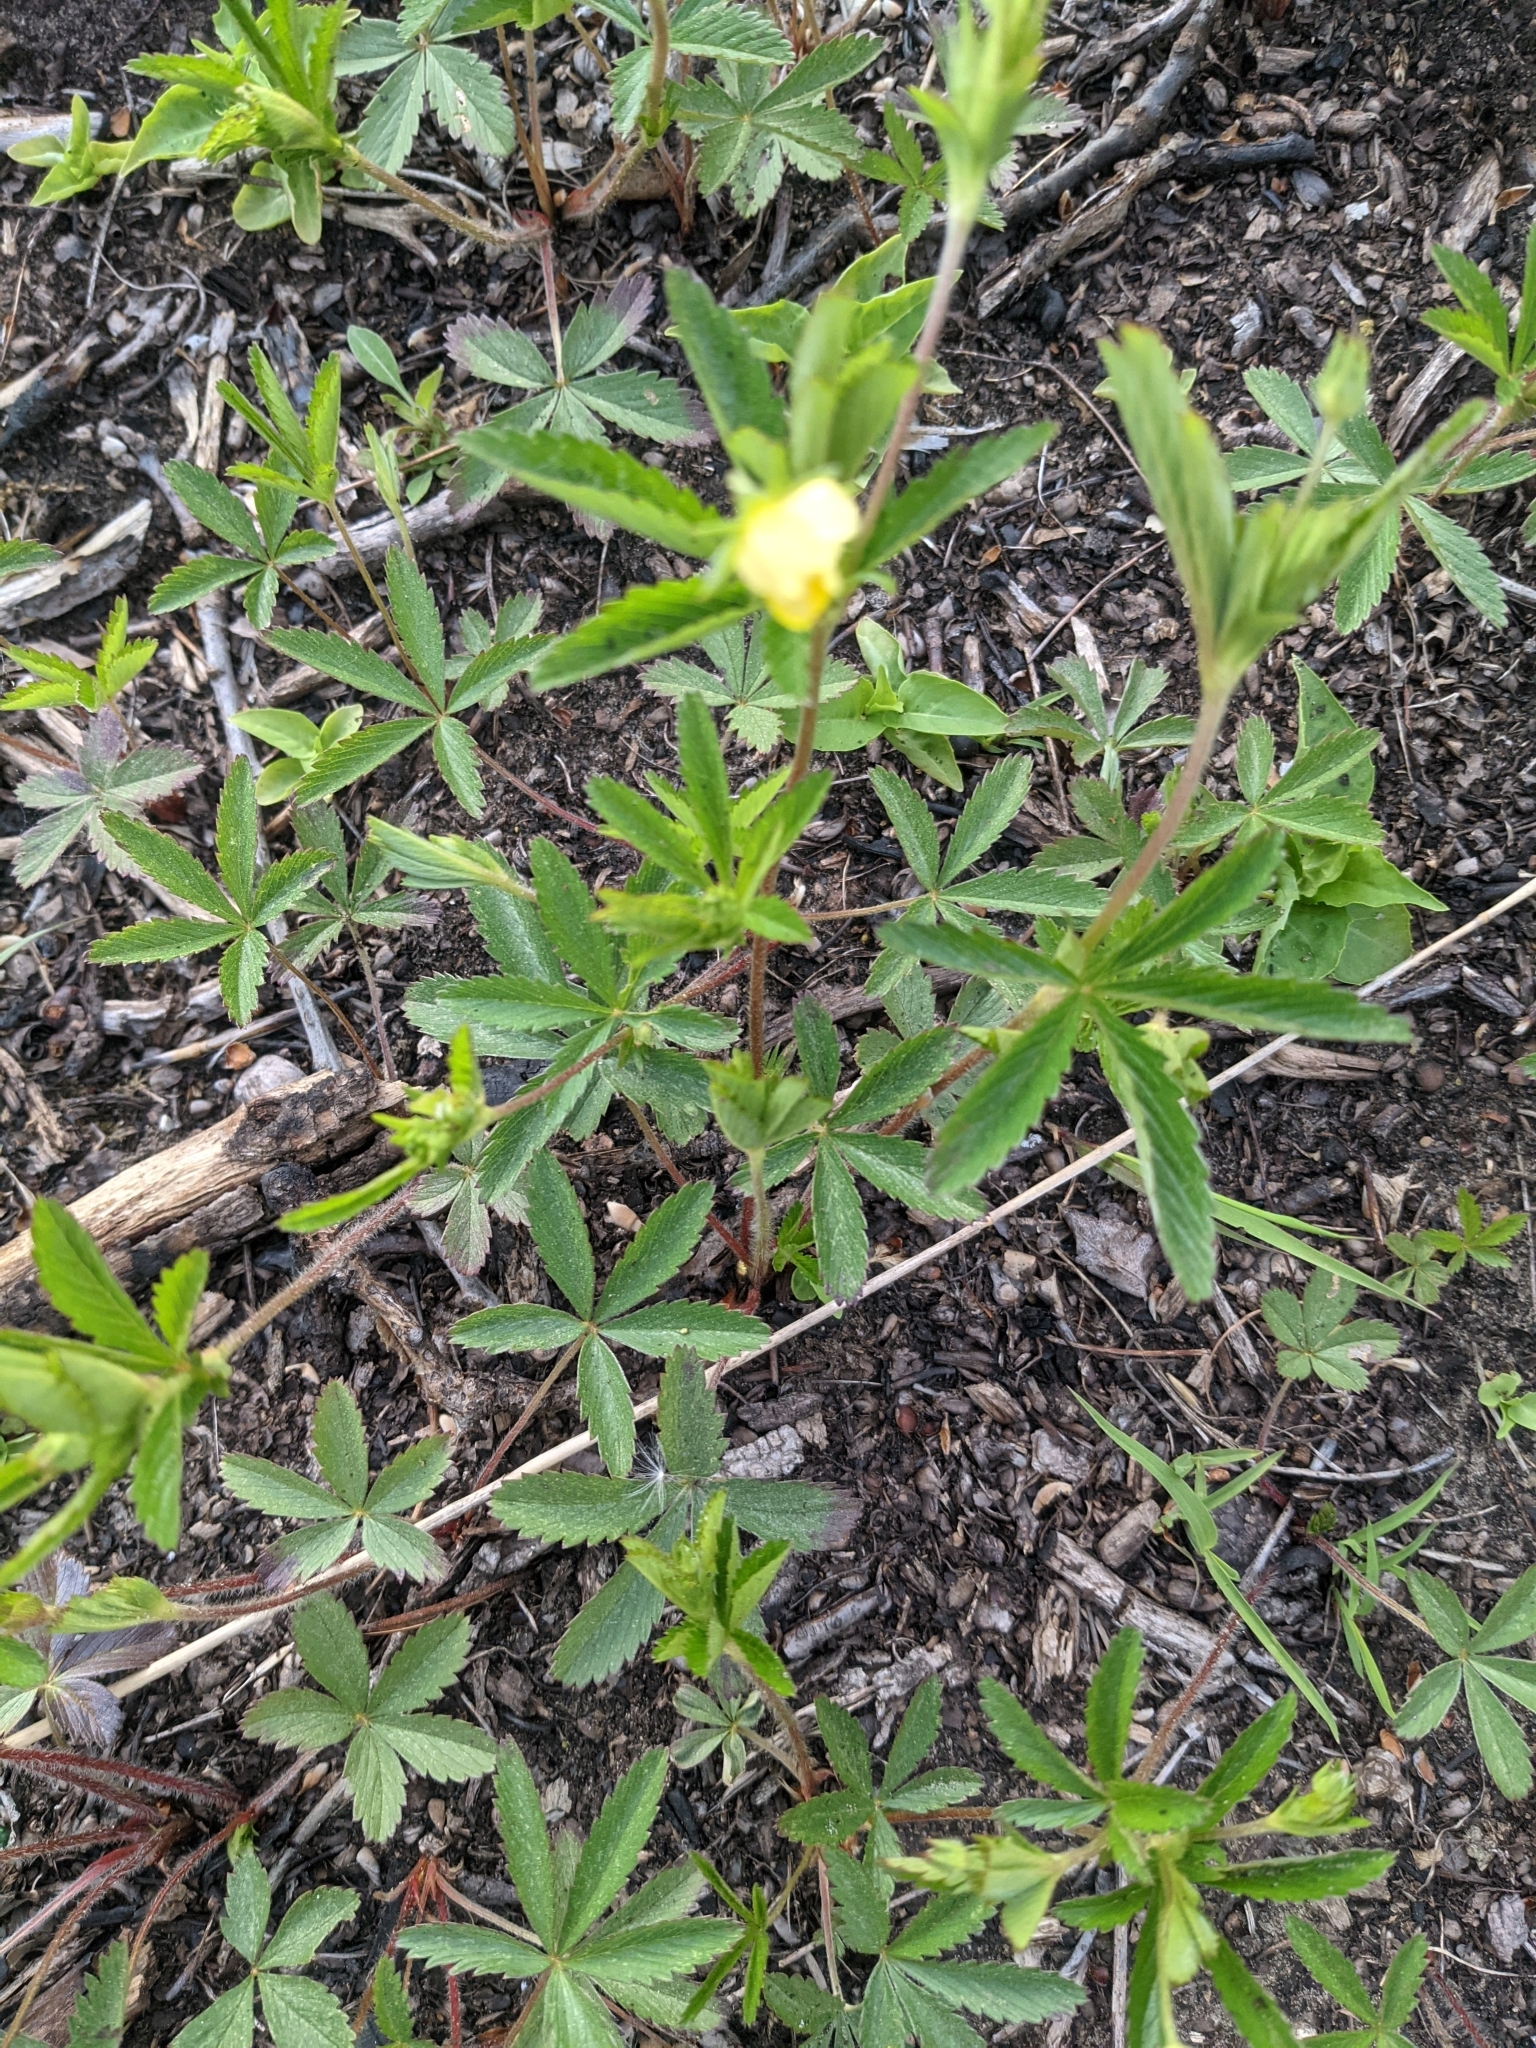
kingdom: Plantae
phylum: Tracheophyta
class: Magnoliopsida
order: Rosales
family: Rosaceae
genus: Potentilla
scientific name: Potentilla simplex
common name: Old field cinquefoil
